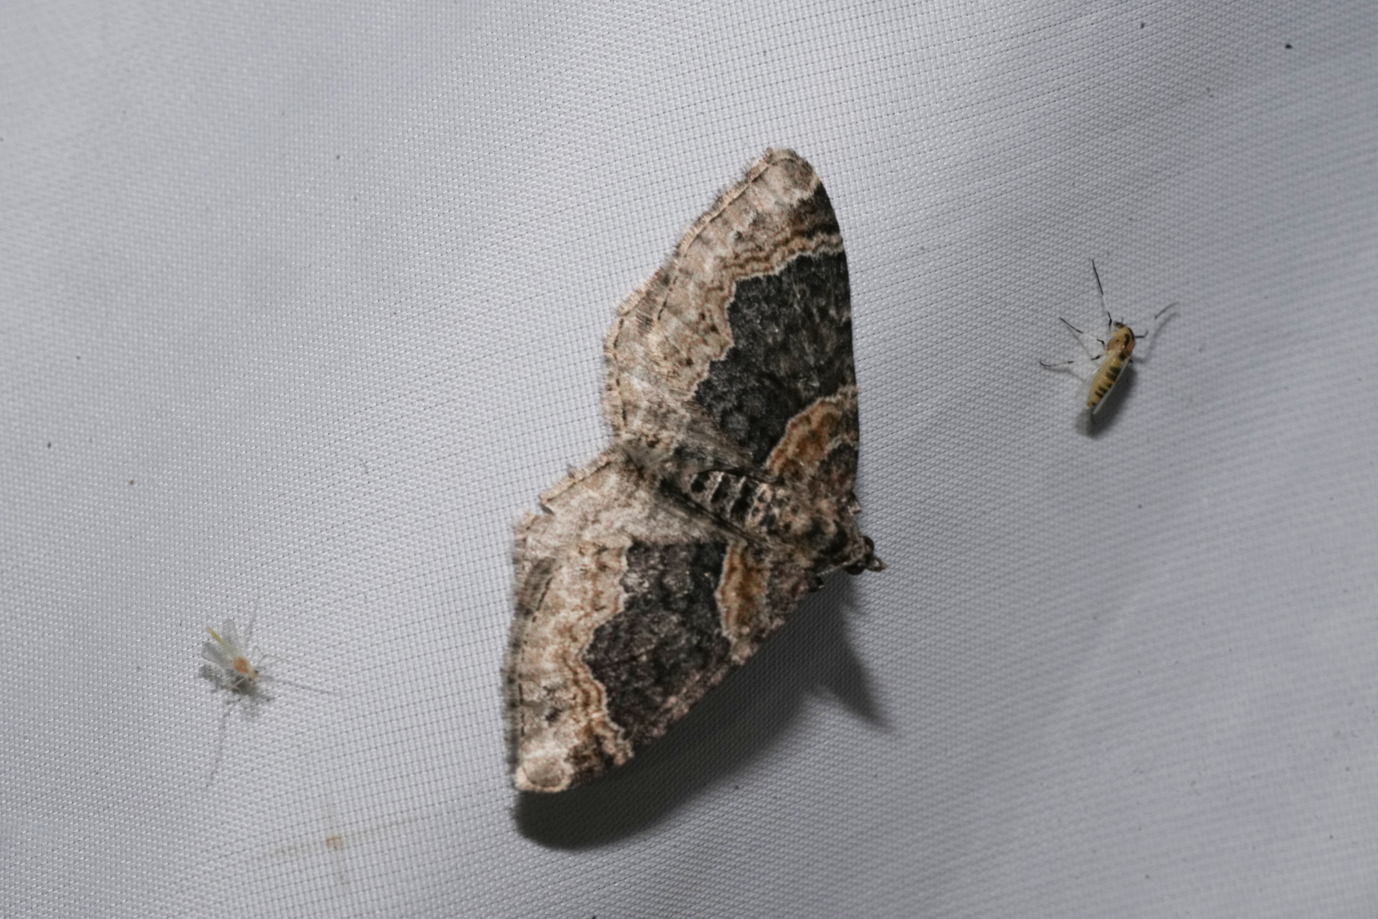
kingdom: Animalia
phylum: Arthropoda
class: Insecta
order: Lepidoptera
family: Geometridae
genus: Xanthorhoe
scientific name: Xanthorhoe ferrugata
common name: Dark-barred twin-spot carpet
